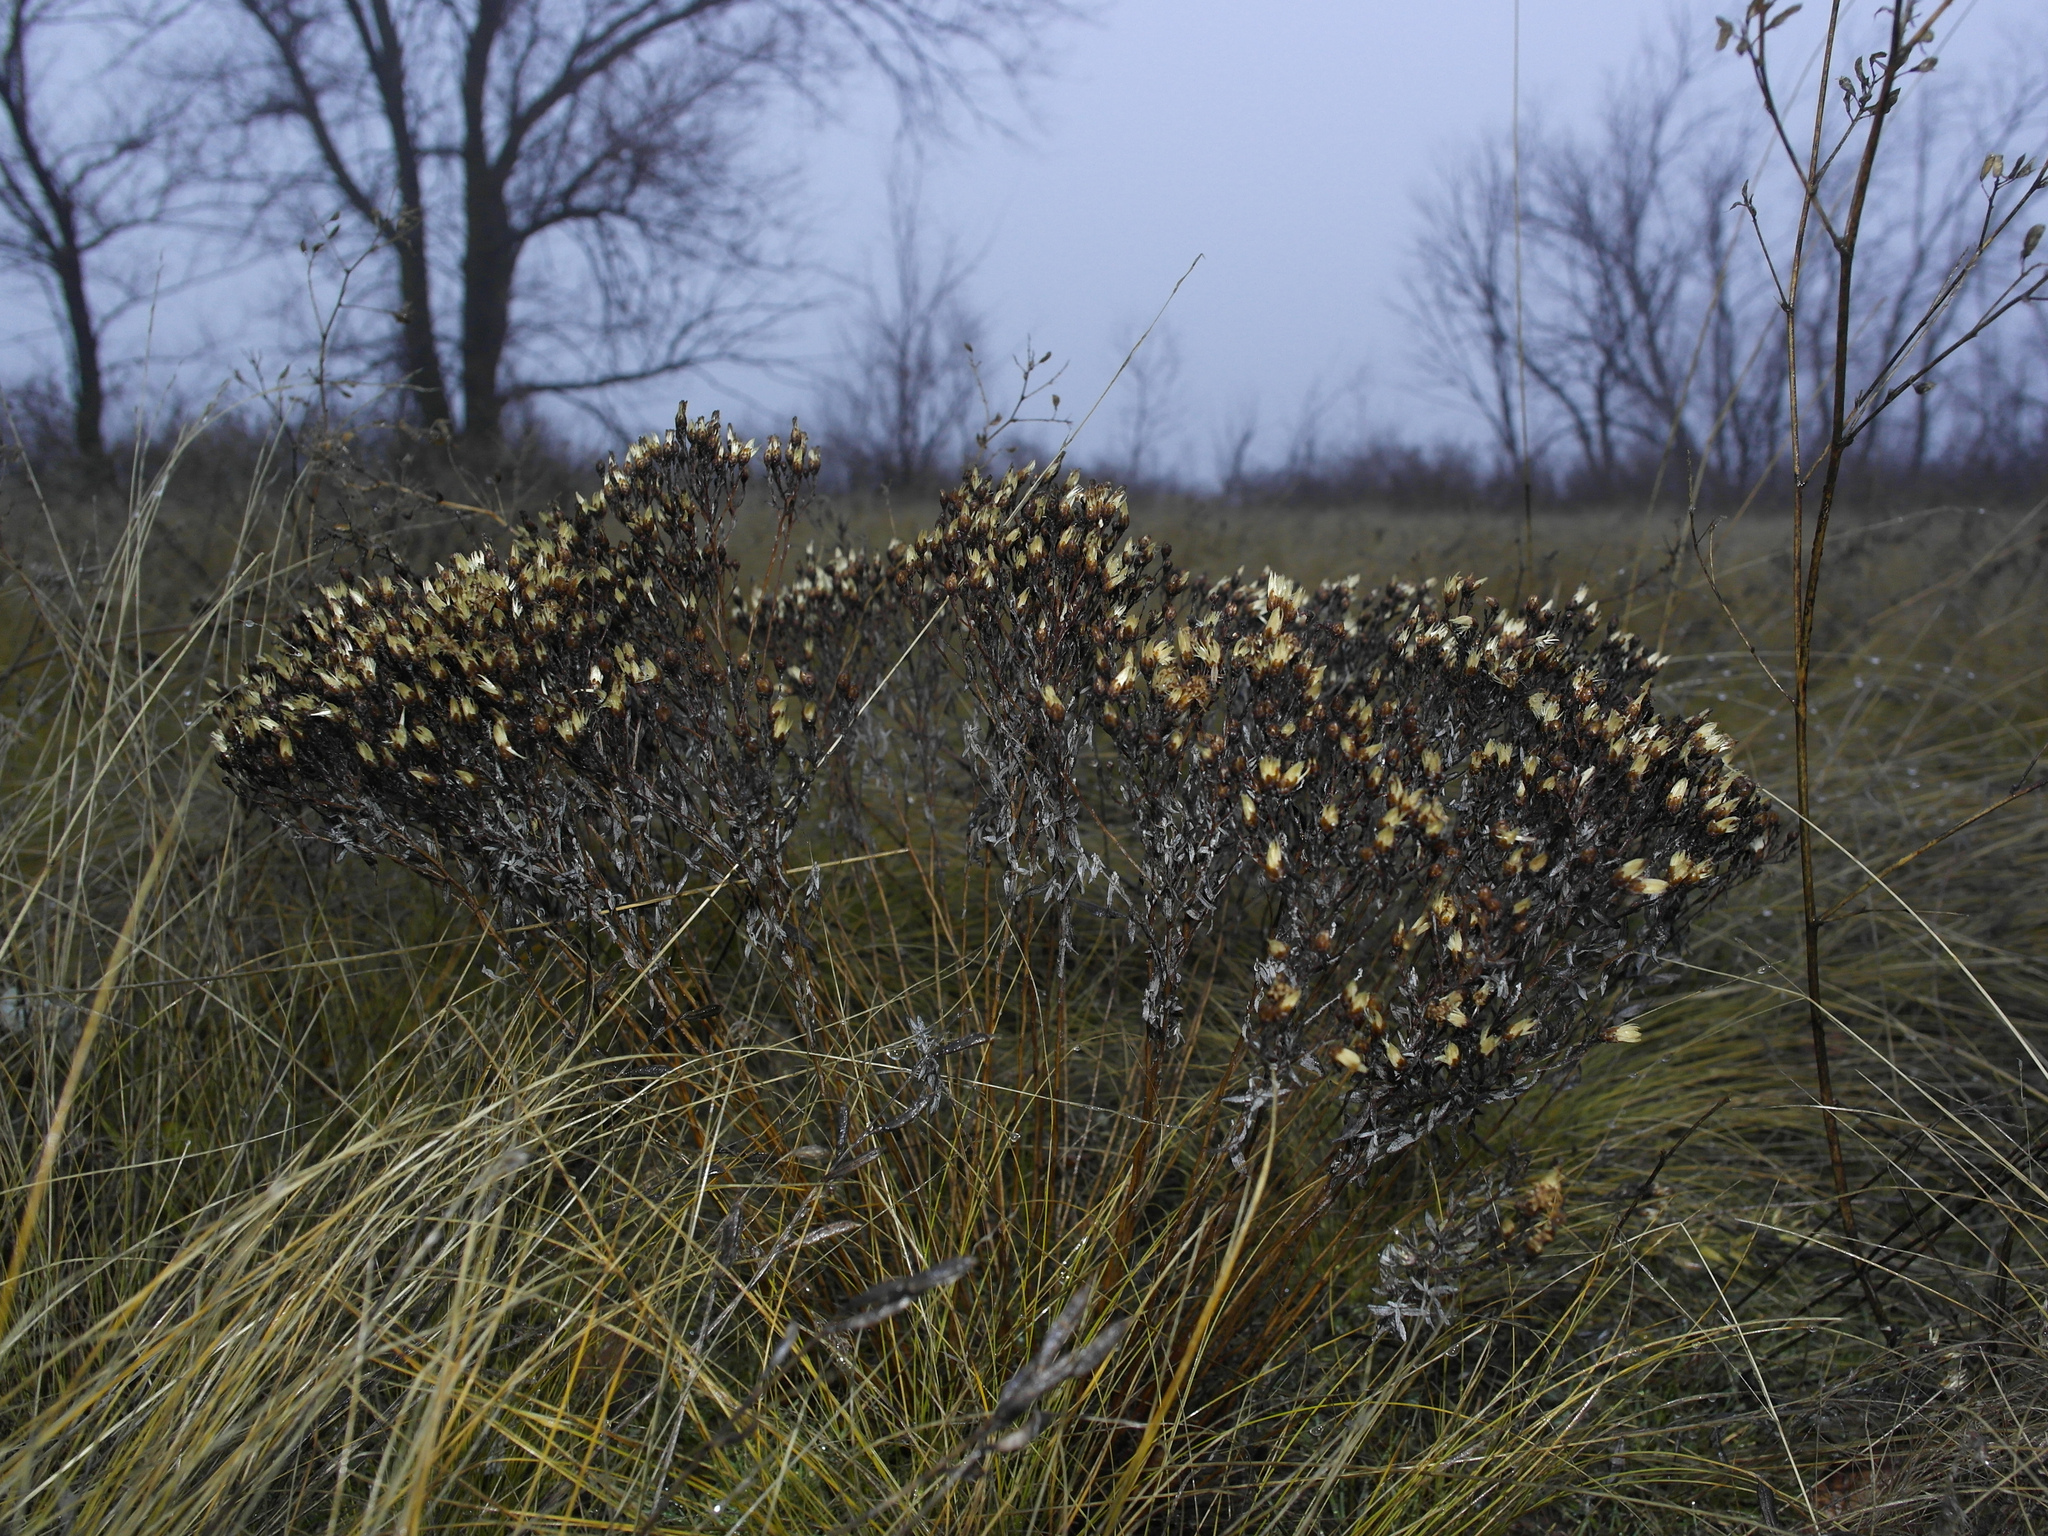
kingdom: Plantae
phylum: Tracheophyta
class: Magnoliopsida
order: Asterales
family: Asteraceae
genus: Galatella
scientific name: Galatella villosa
